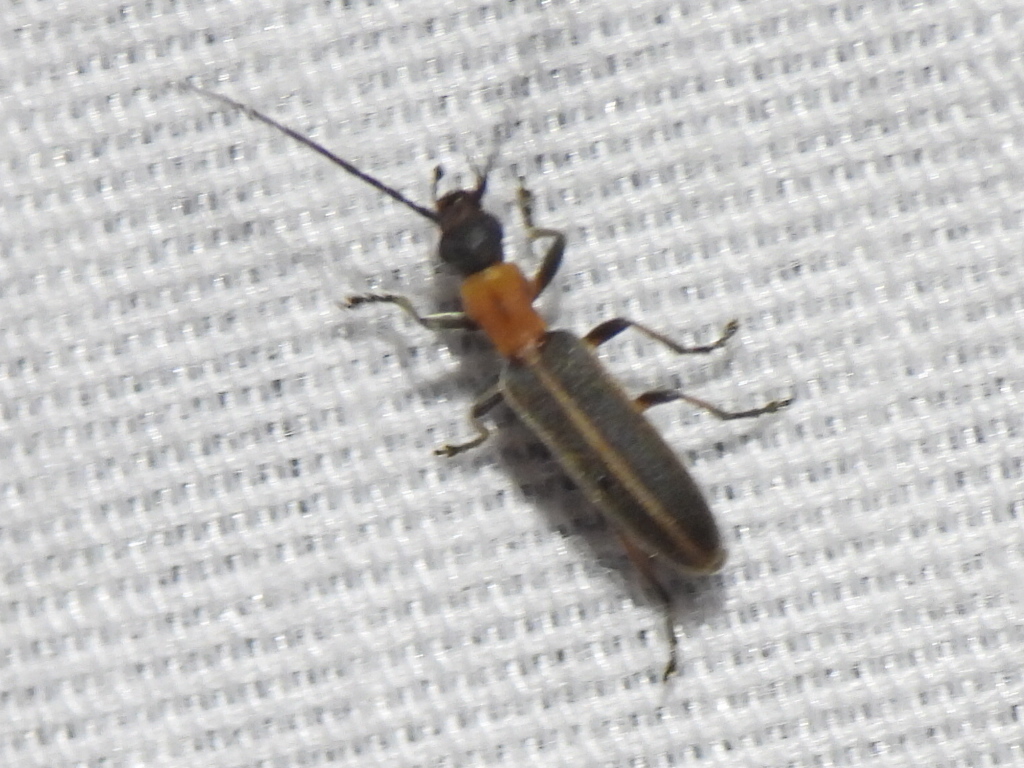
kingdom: Animalia
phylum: Arthropoda
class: Insecta
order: Coleoptera
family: Oedemeridae
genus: Oxacis
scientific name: Oxacis cana
